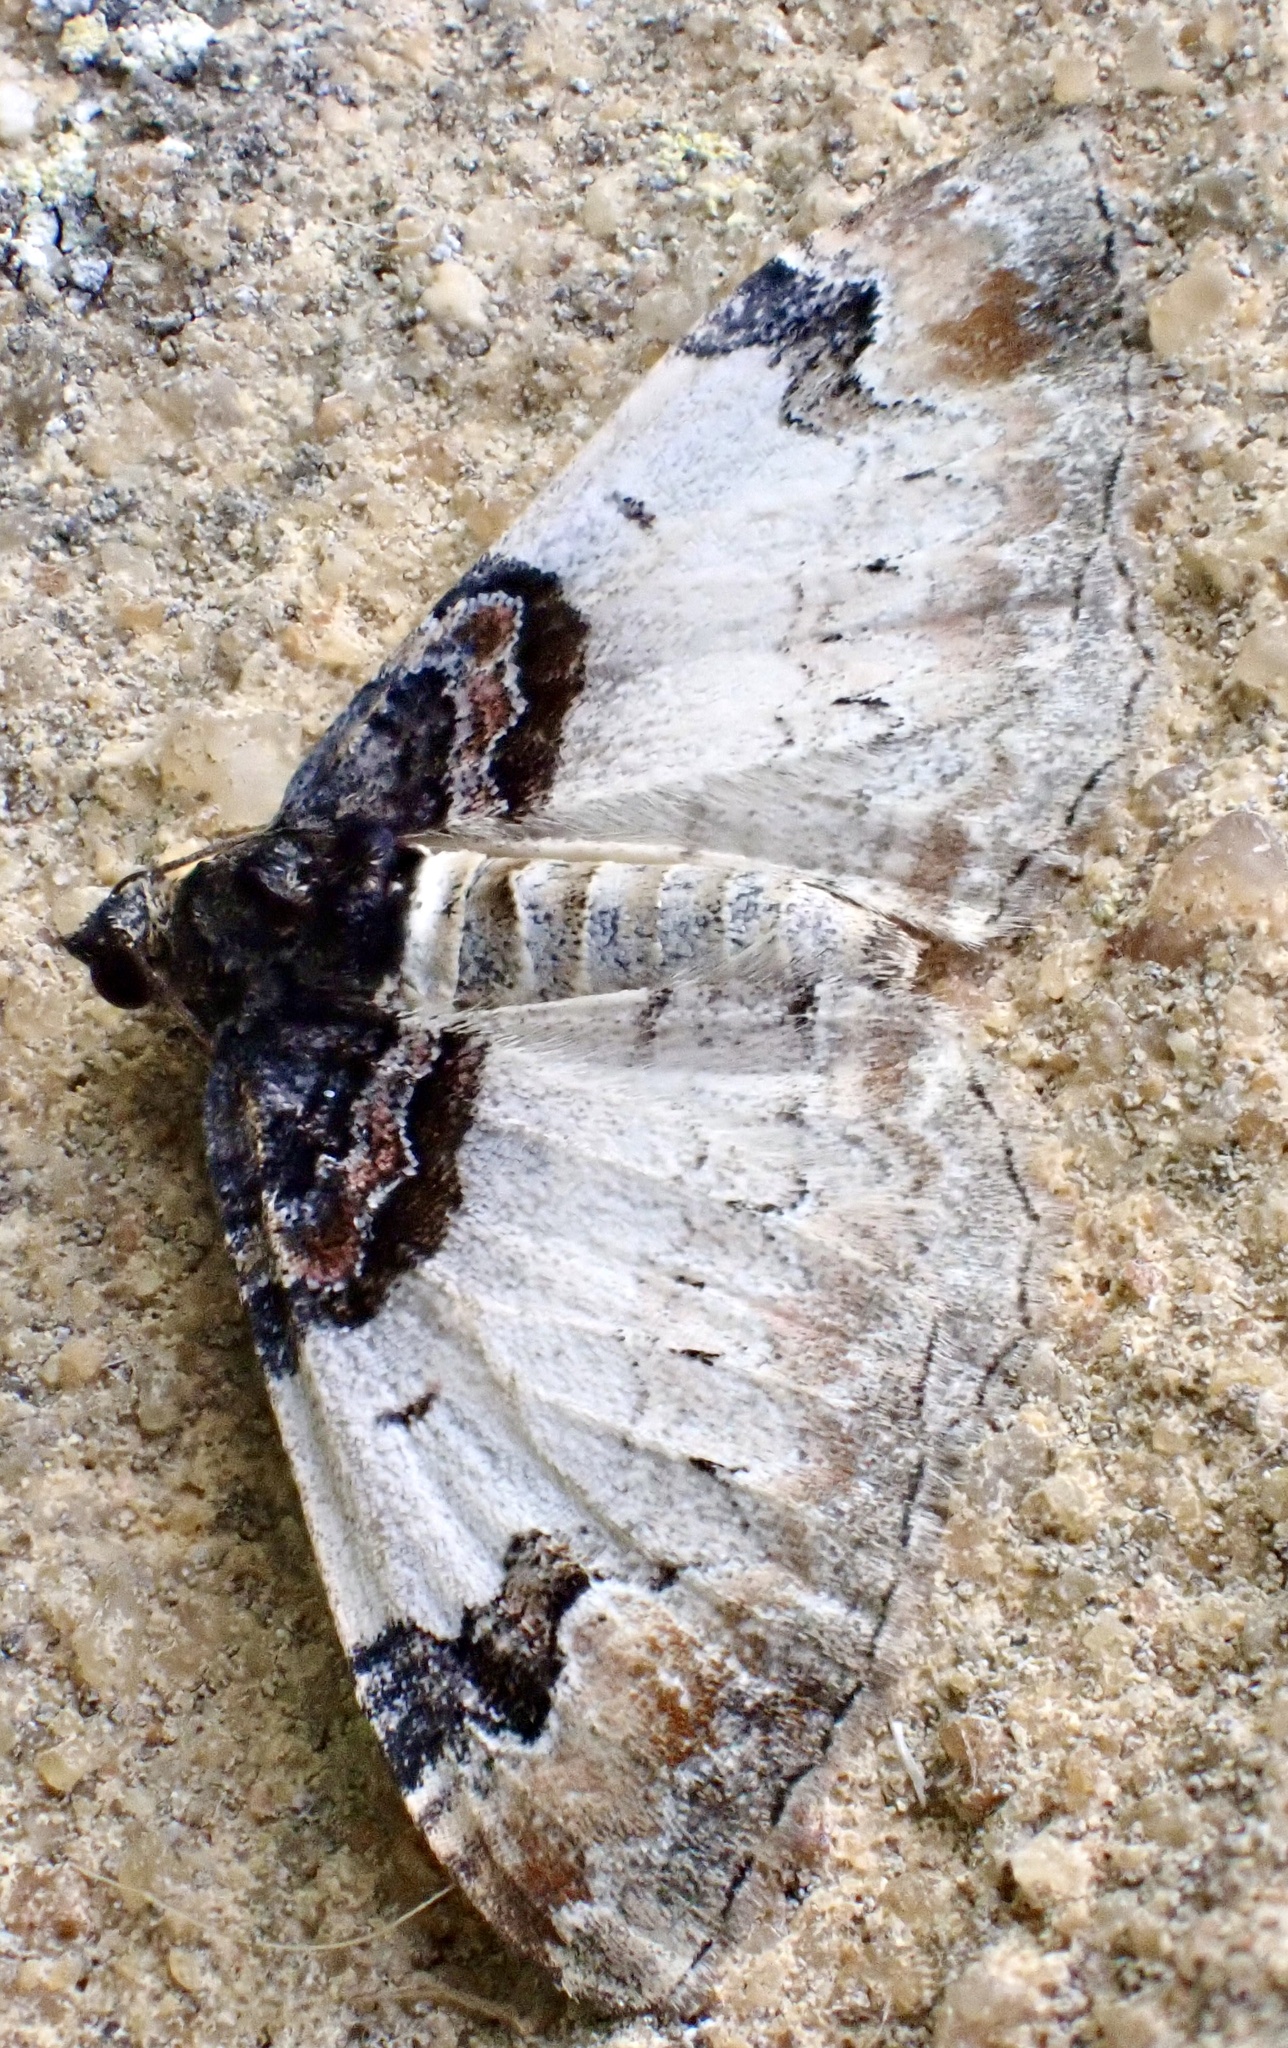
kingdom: Animalia
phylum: Arthropoda
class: Insecta
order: Lepidoptera
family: Geometridae
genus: Catarhoe
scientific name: Catarhoe cuculata
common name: Royal mantle
